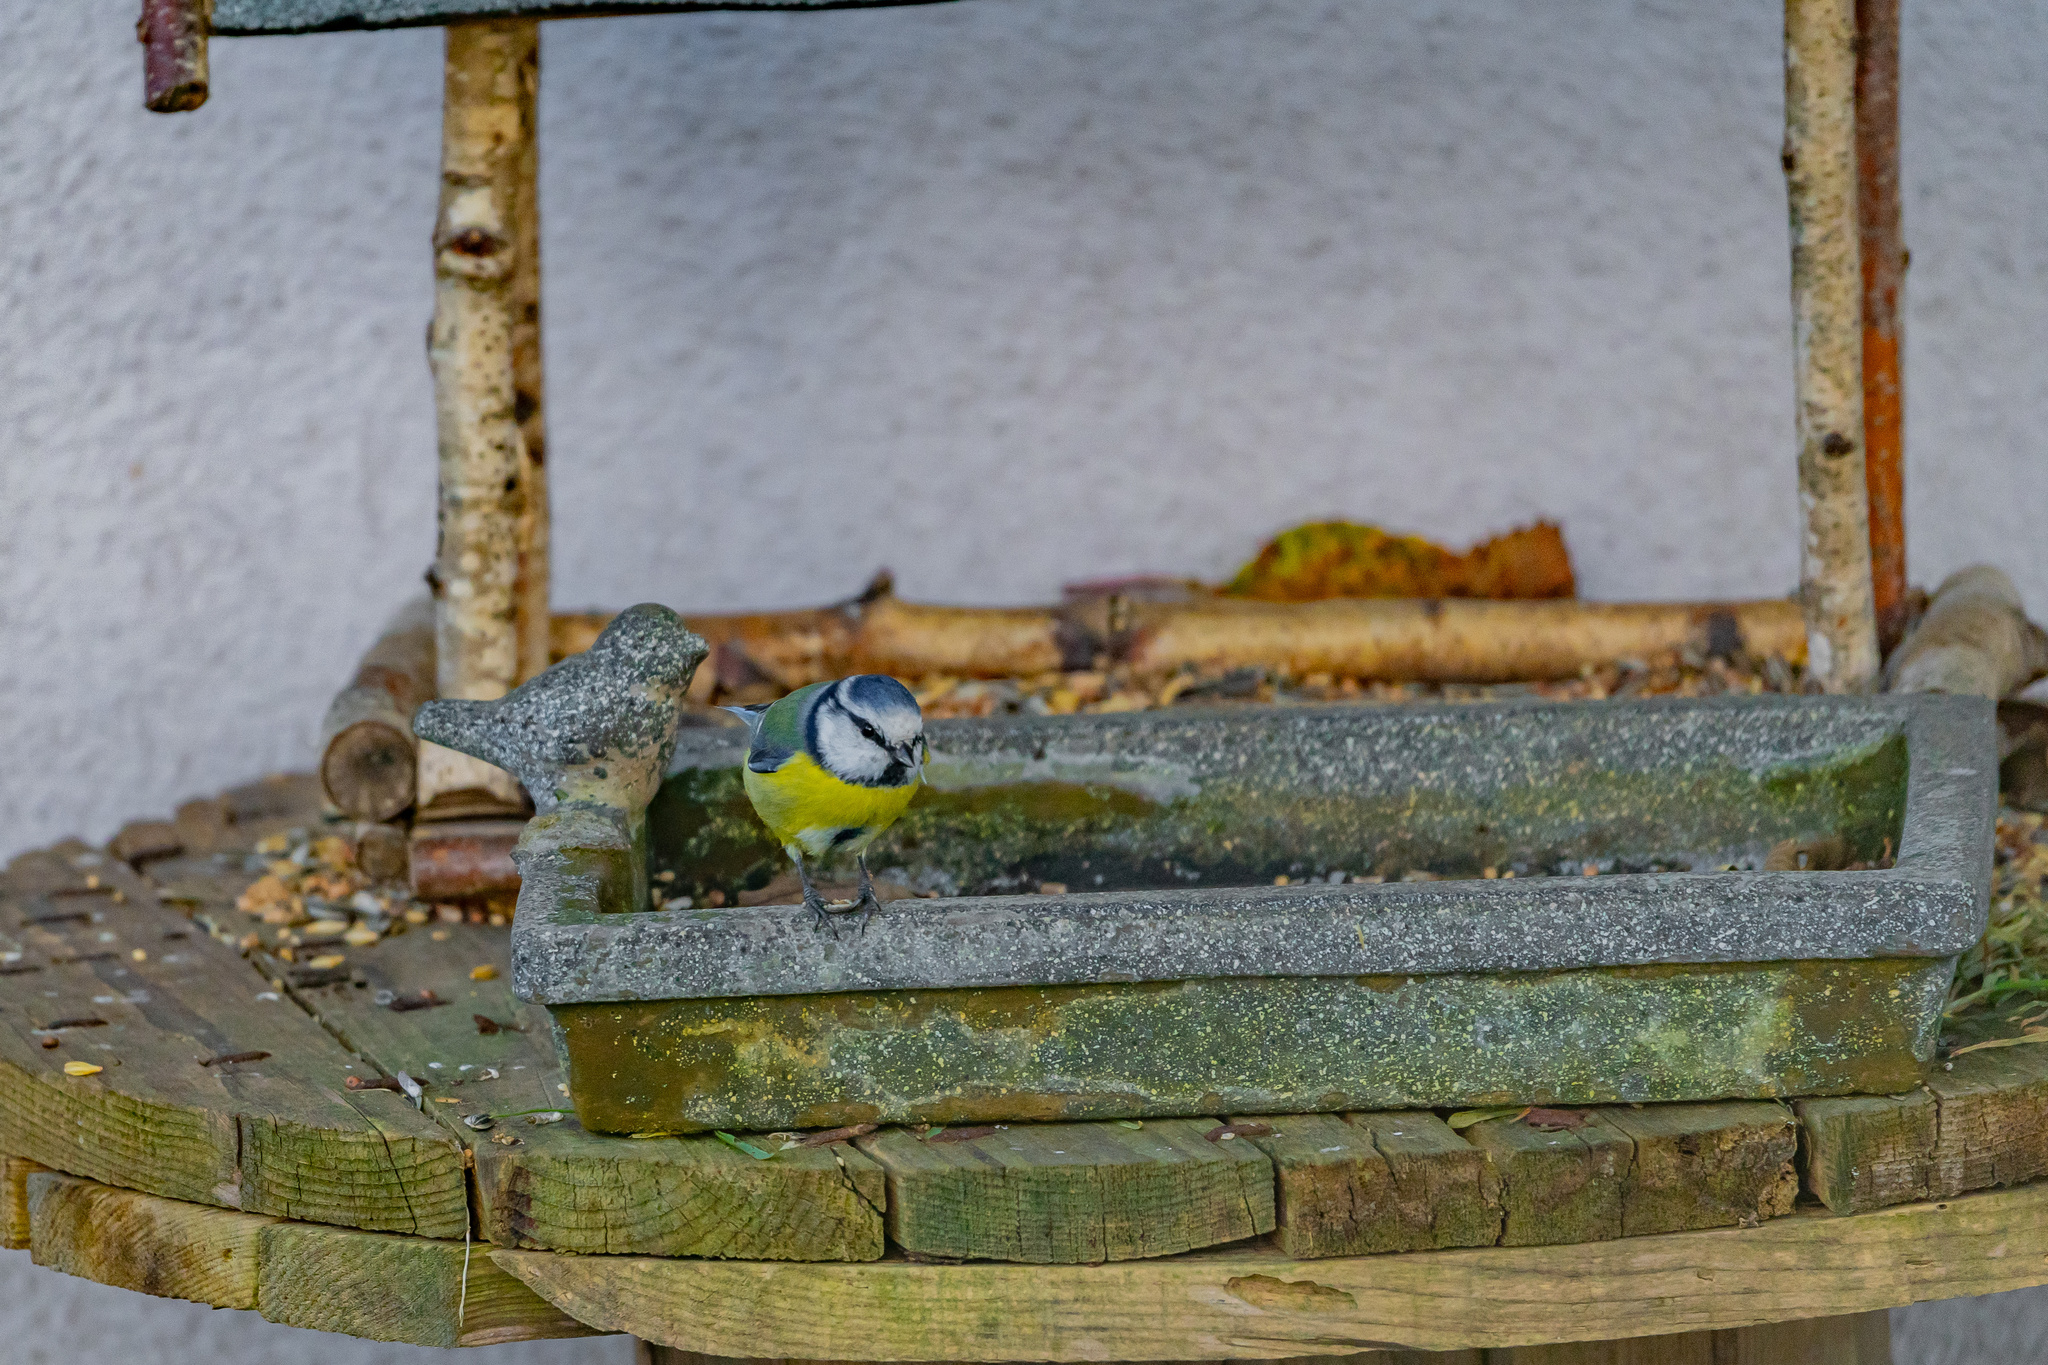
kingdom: Animalia
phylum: Chordata
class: Aves
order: Passeriformes
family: Paridae
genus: Cyanistes
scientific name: Cyanistes caeruleus
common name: Eurasian blue tit
